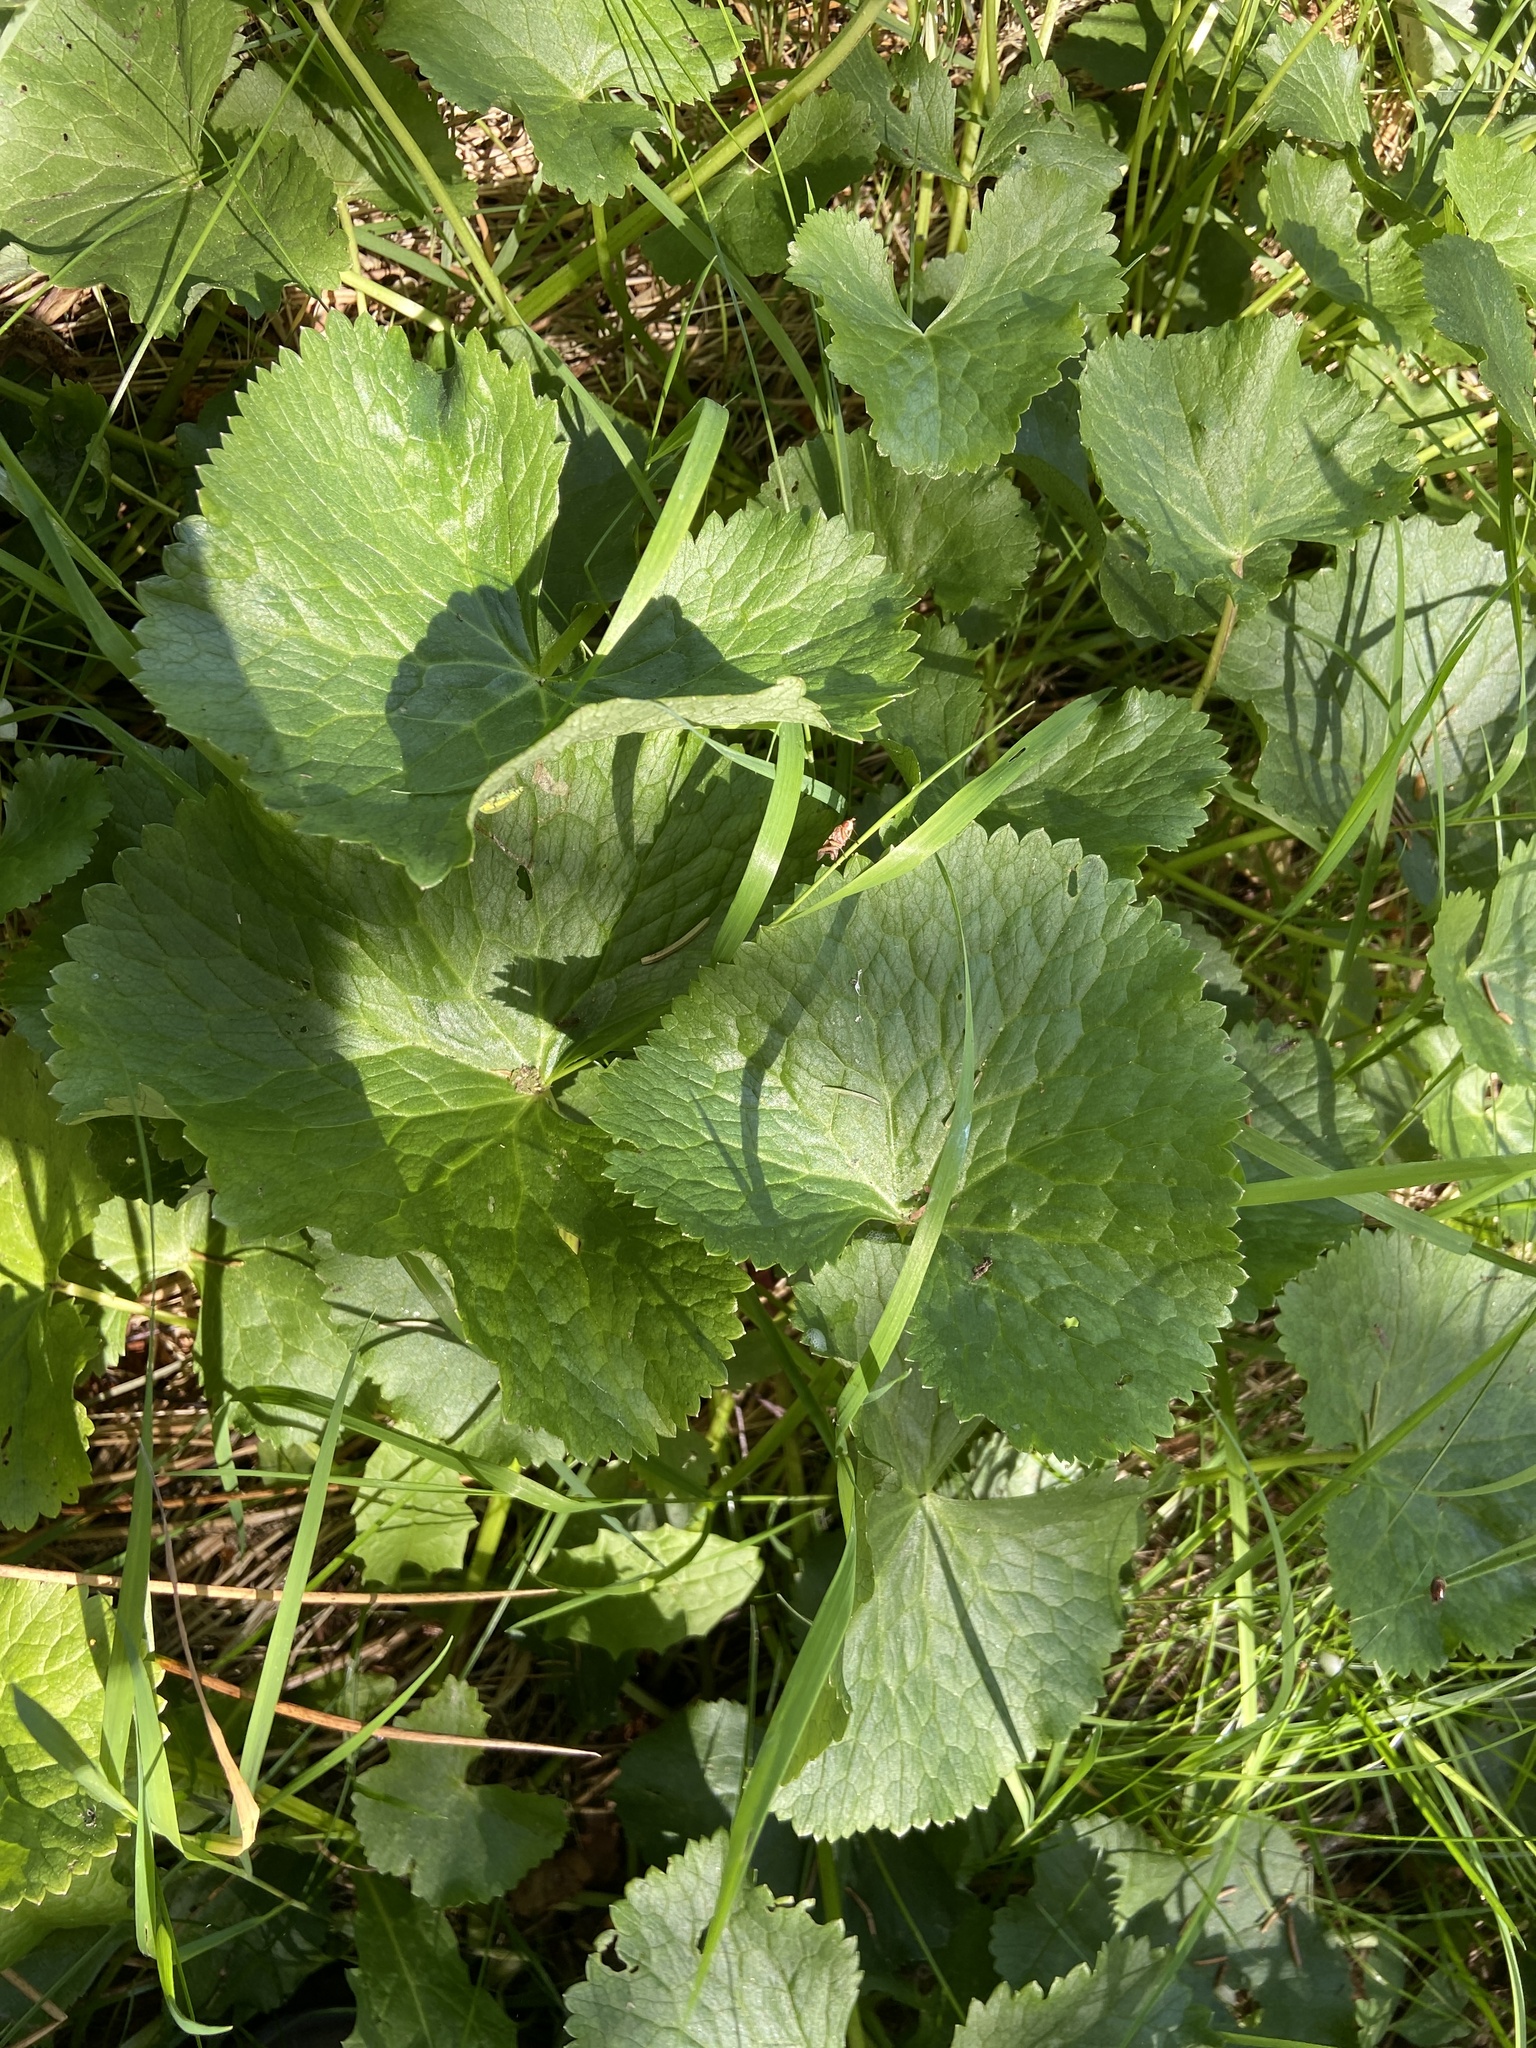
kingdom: Plantae
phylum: Tracheophyta
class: Magnoliopsida
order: Ranunculales
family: Ranunculaceae
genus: Caltha
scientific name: Caltha palustris
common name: Marsh marigold
